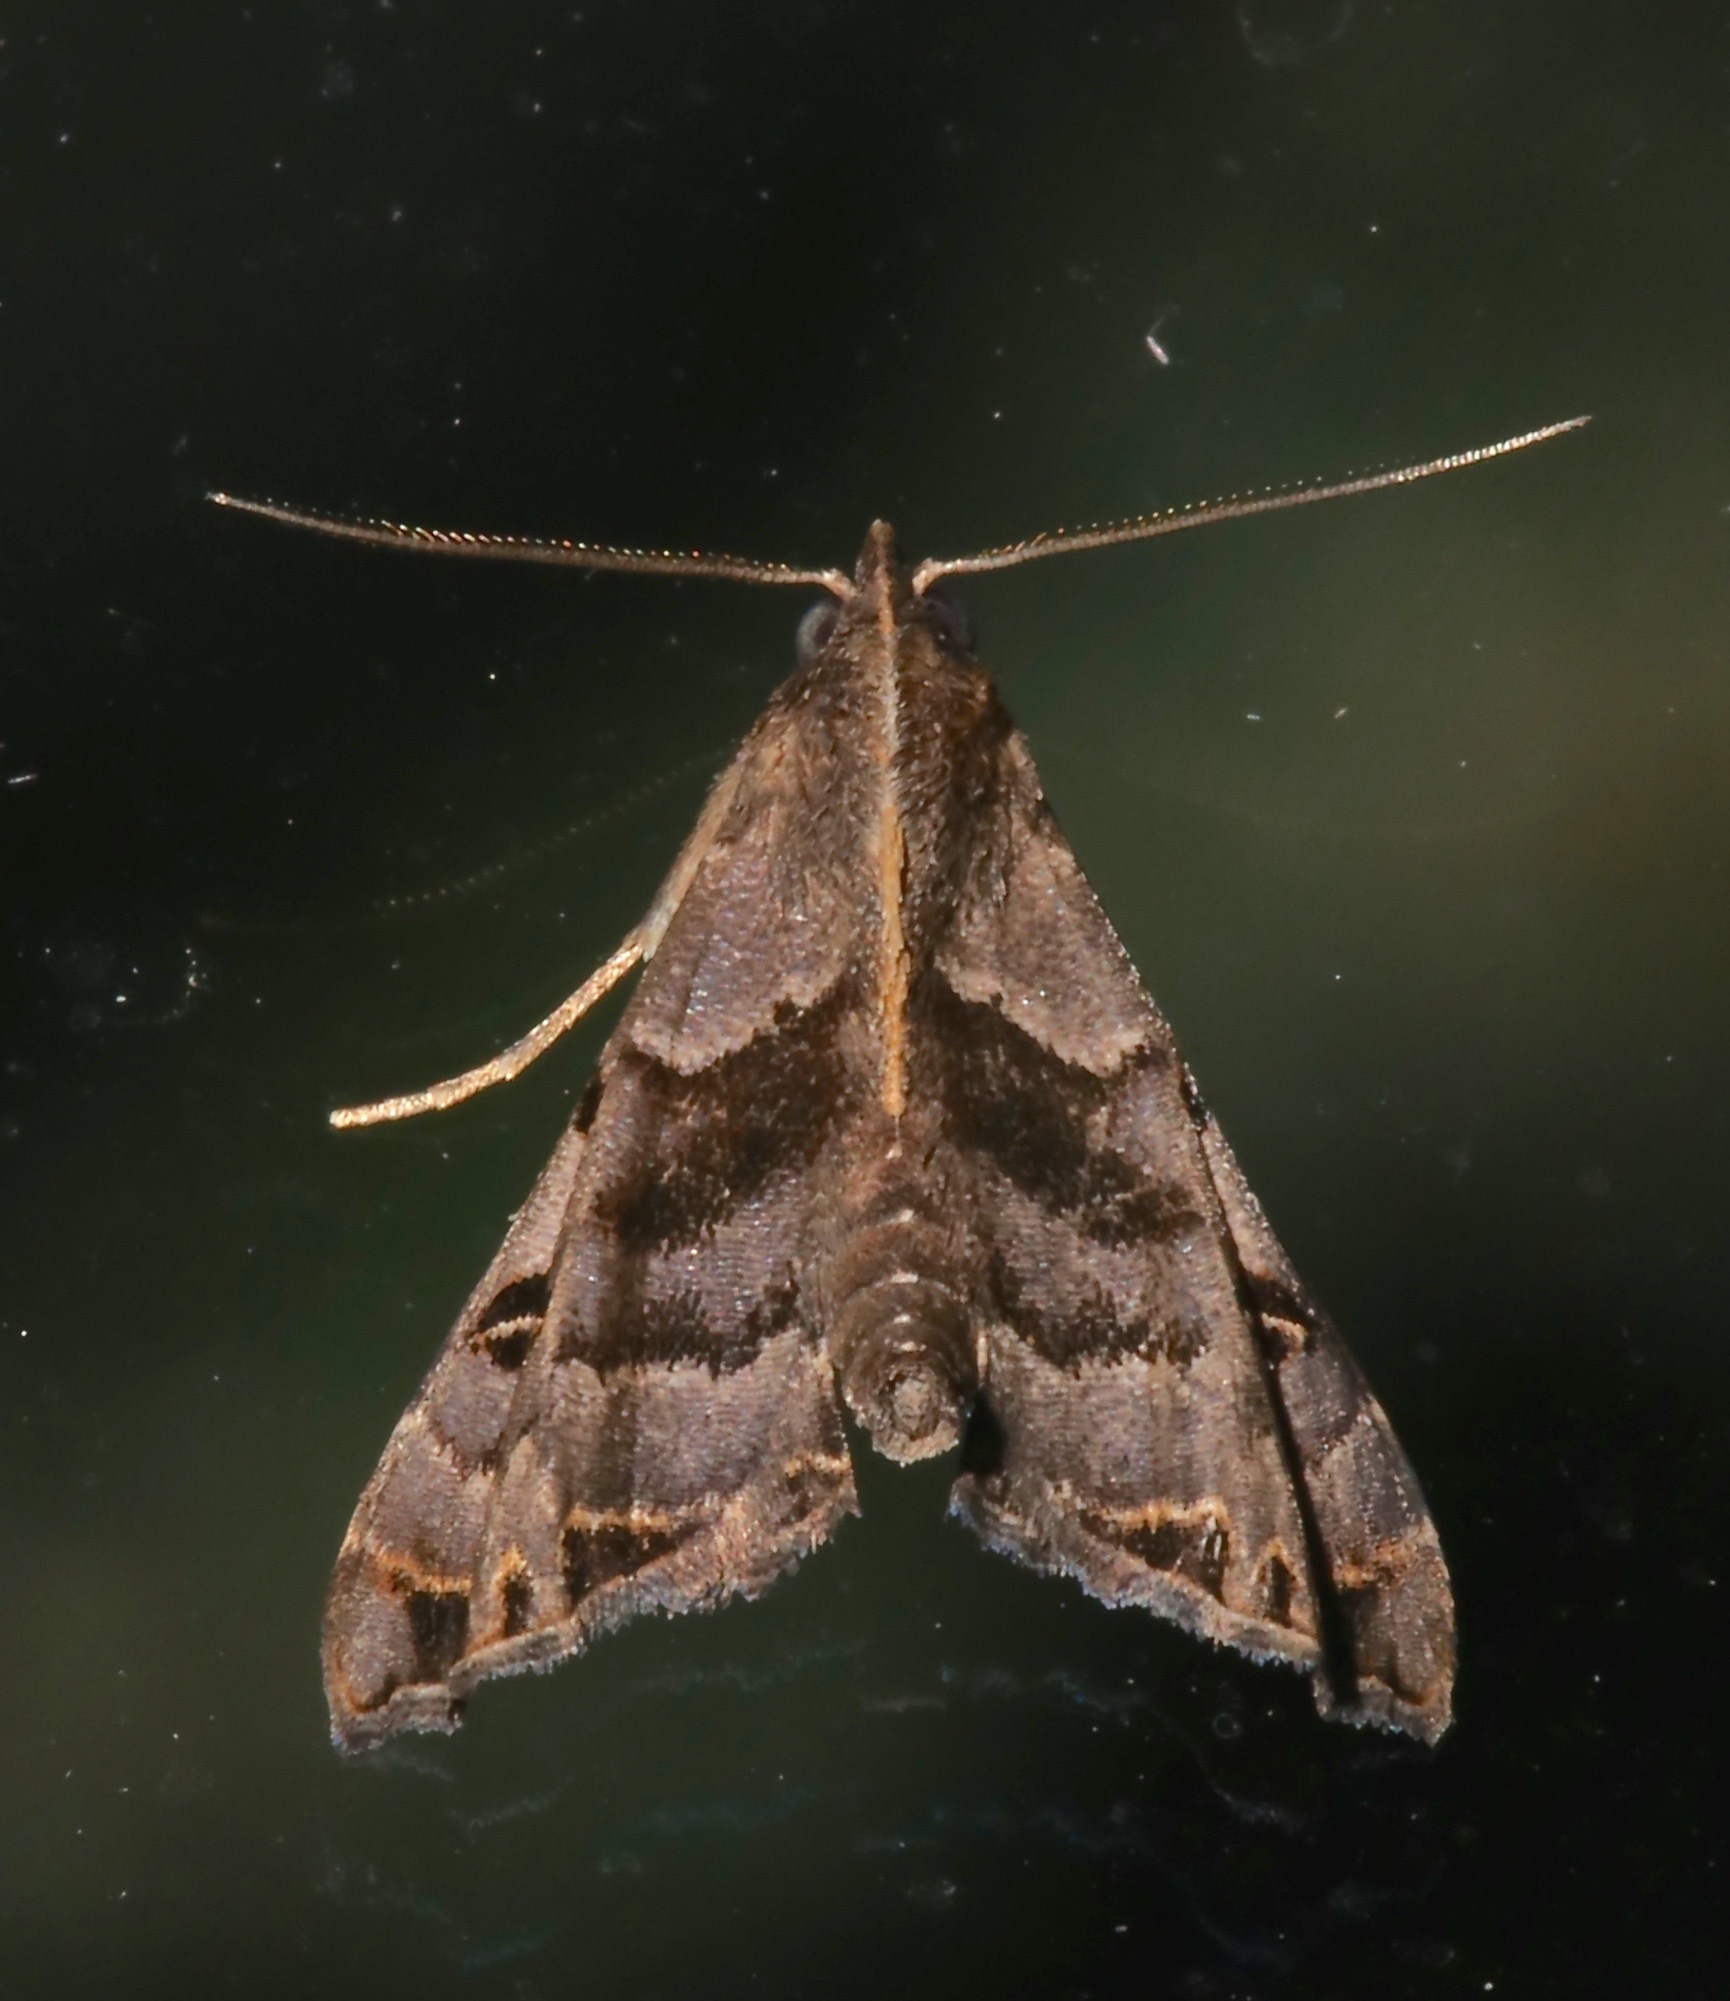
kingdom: Animalia
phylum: Arthropoda
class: Insecta
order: Lepidoptera
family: Erebidae
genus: Palthis
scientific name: Palthis asopialis
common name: Faint-spotted palthis moth
